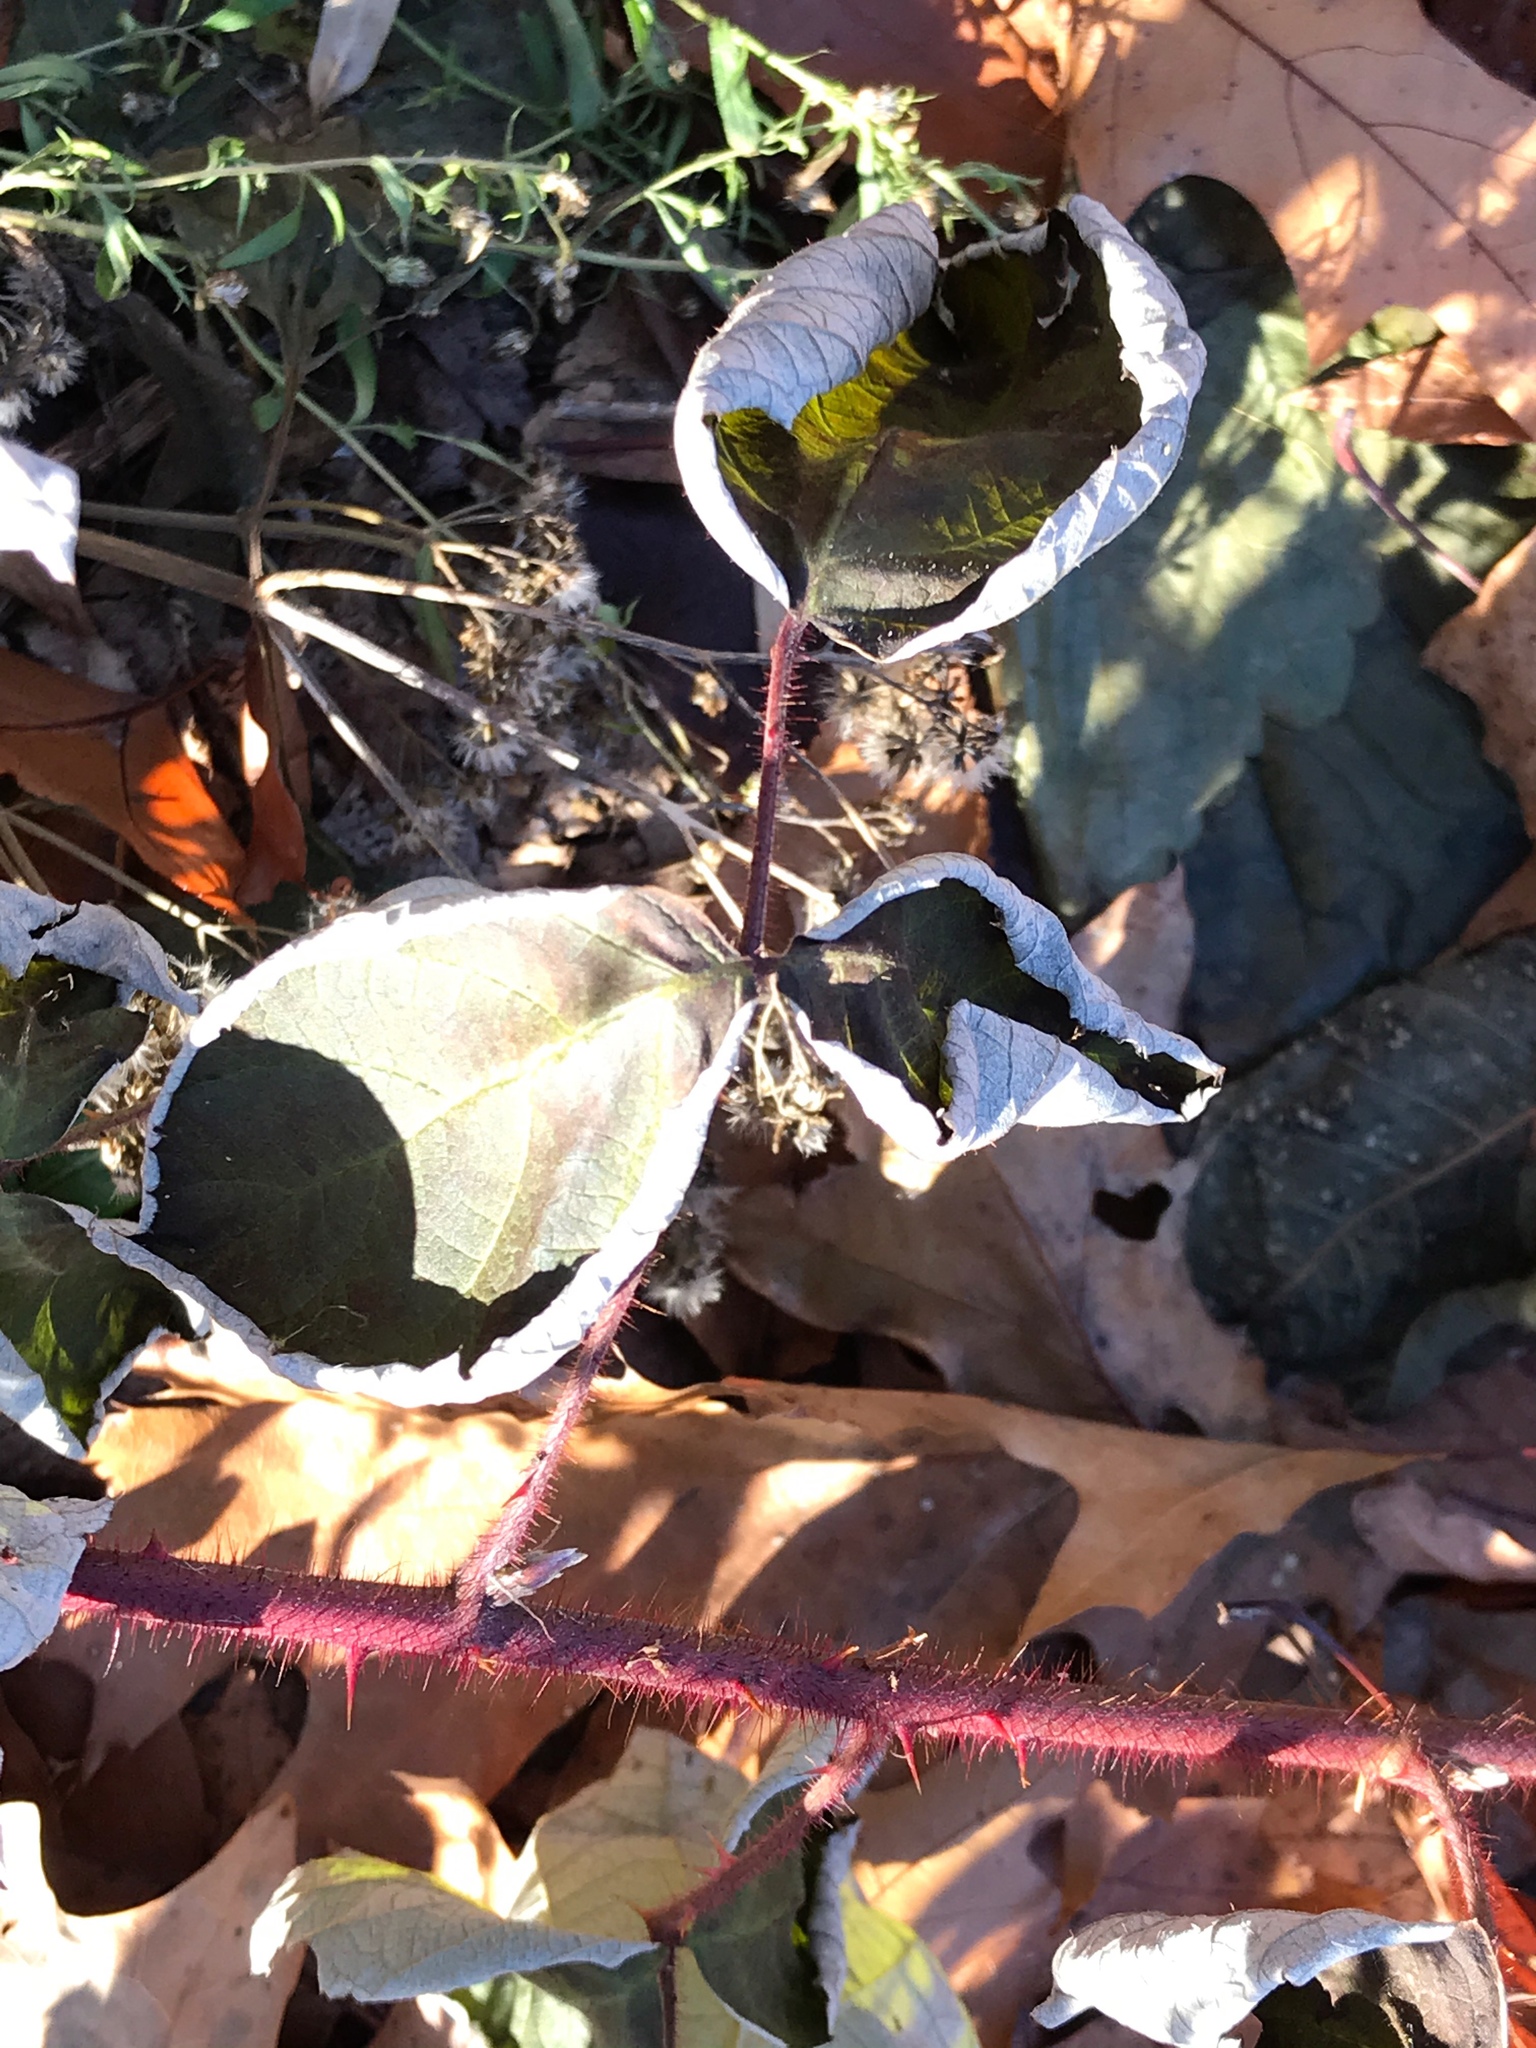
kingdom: Plantae
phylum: Tracheophyta
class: Magnoliopsida
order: Rosales
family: Rosaceae
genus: Rubus
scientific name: Rubus phoenicolasius
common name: Japanese wineberry
